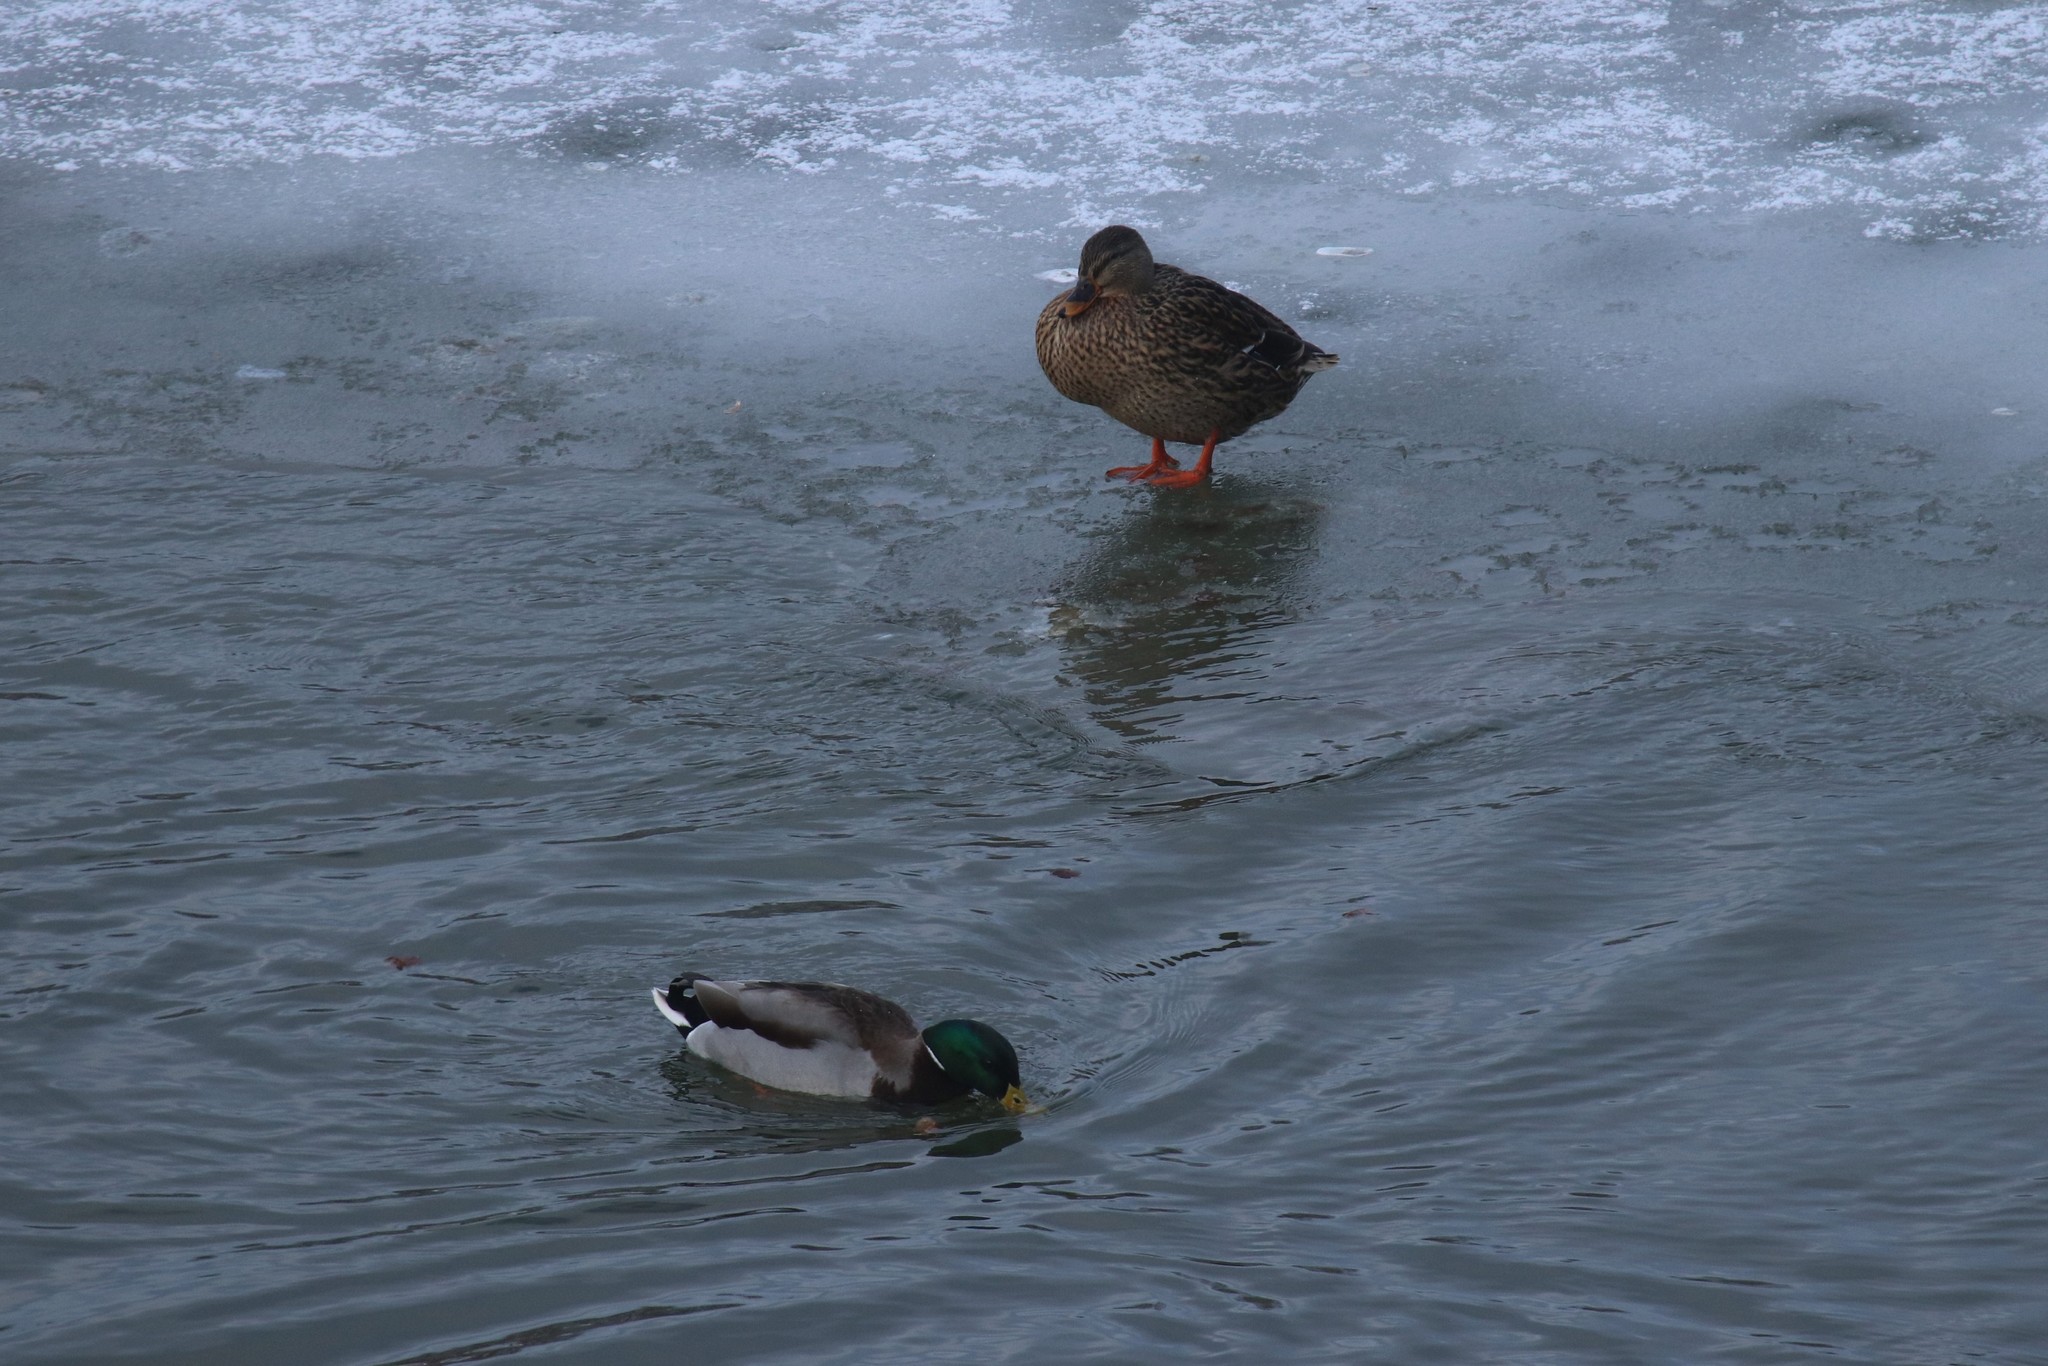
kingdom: Animalia
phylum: Chordata
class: Aves
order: Anseriformes
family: Anatidae
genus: Anas
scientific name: Anas platyrhynchos
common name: Mallard
